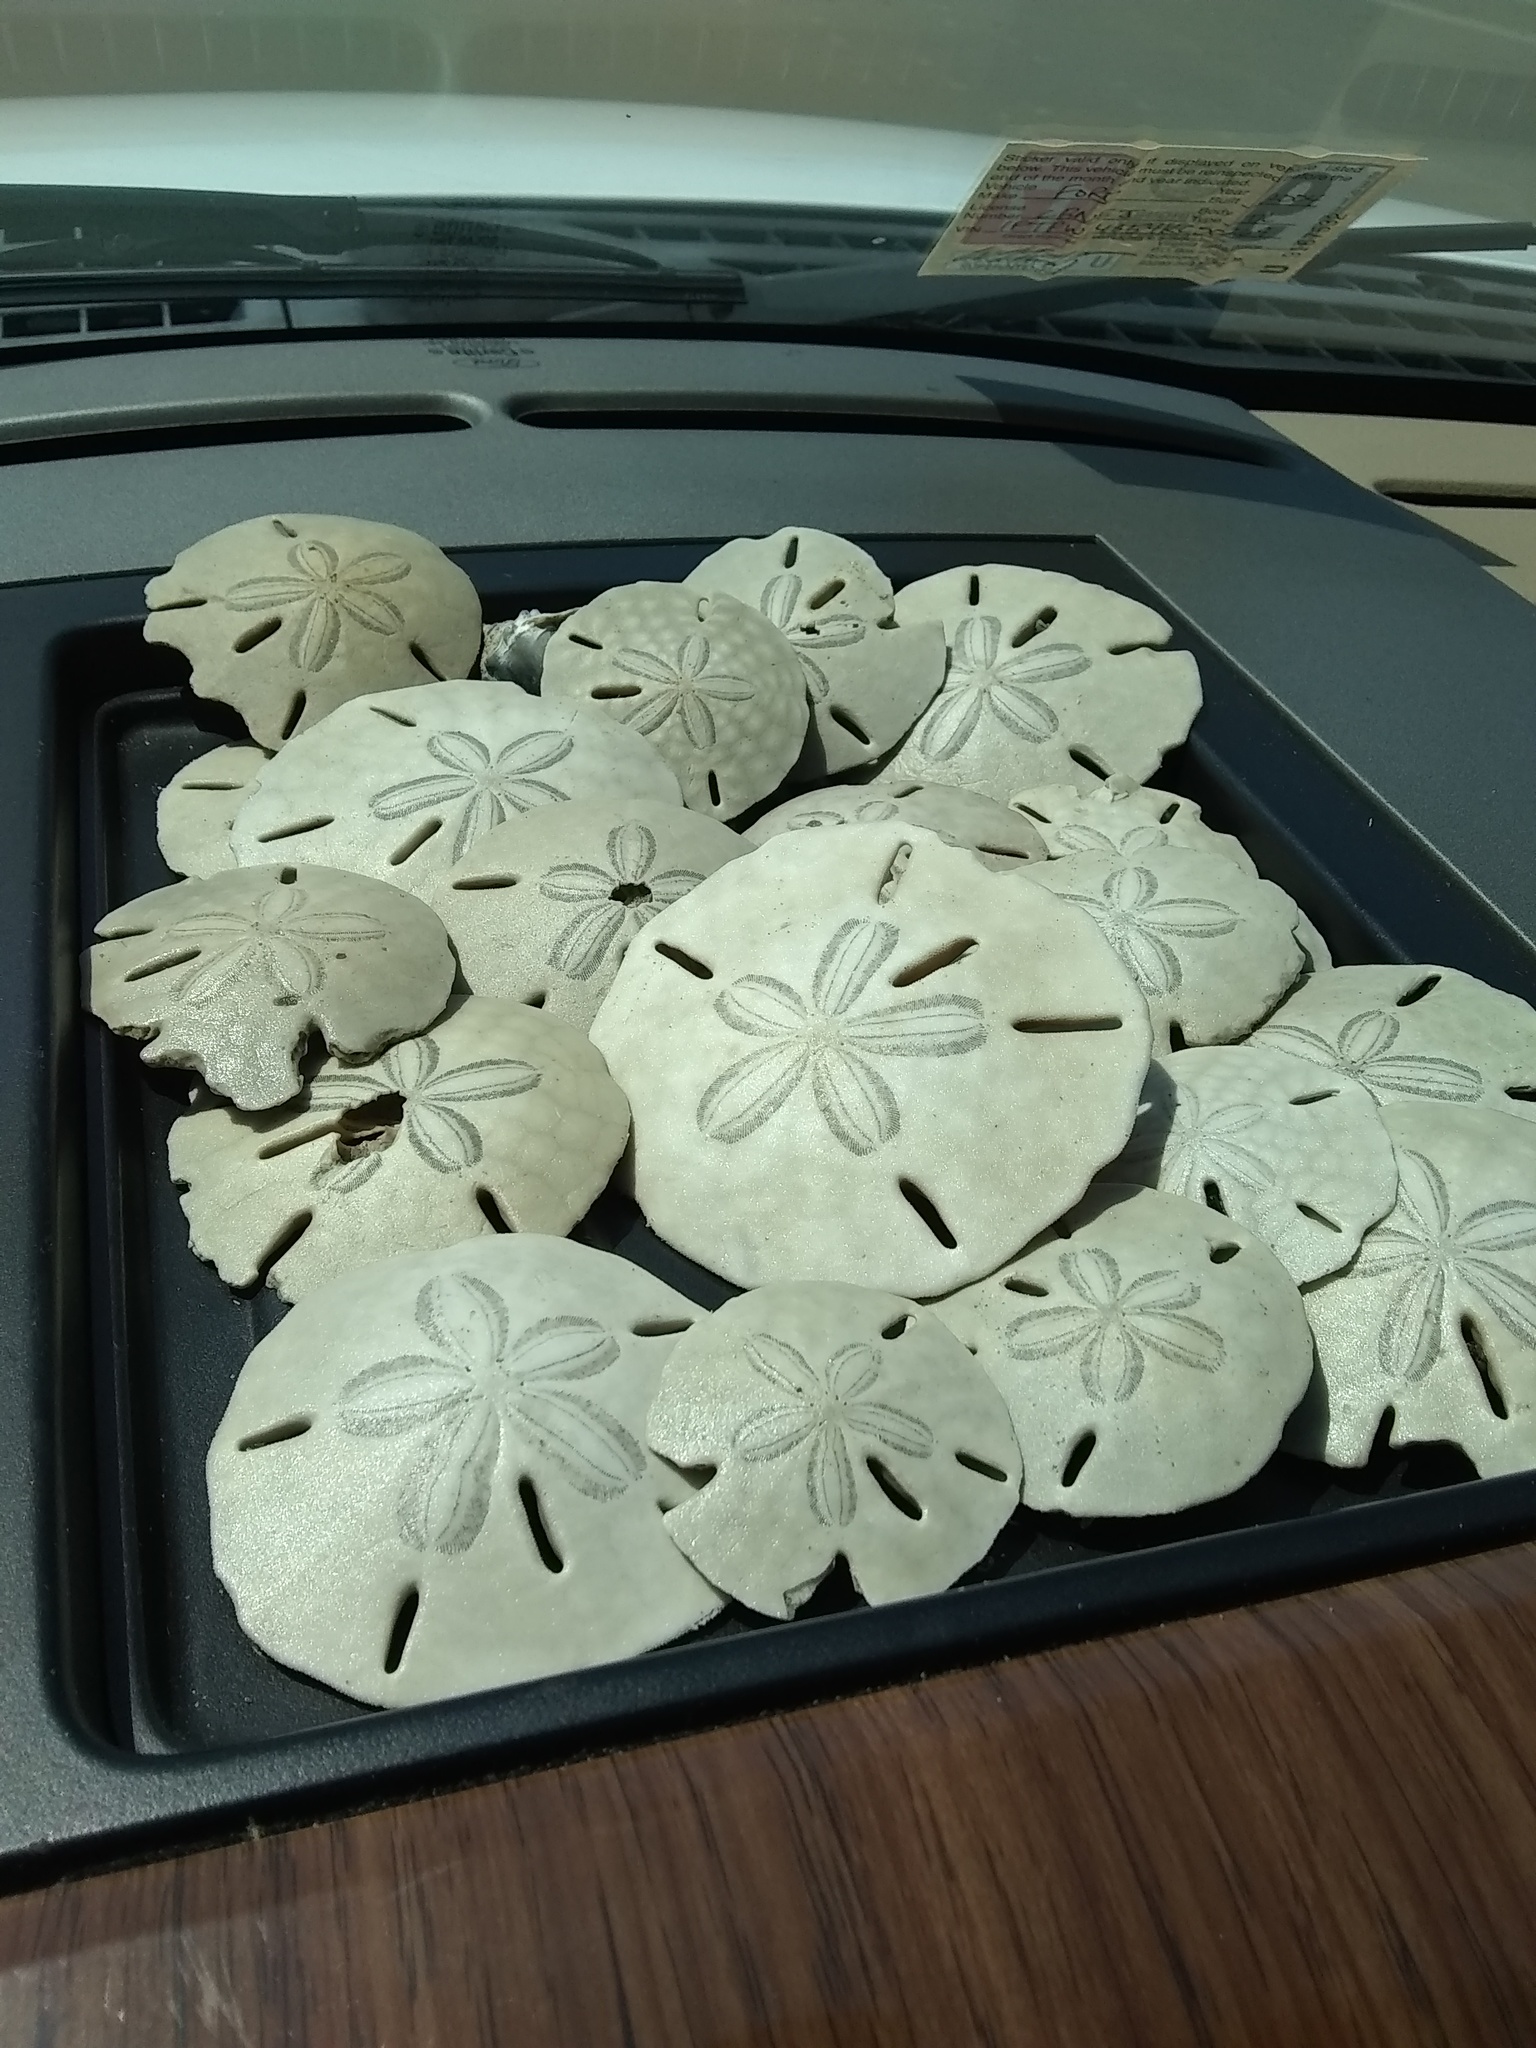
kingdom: Animalia
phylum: Echinodermata
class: Echinoidea
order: Echinolampadacea
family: Mellitidae
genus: Mellita
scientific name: Mellita quinquiesperforata
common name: Sand dollar
